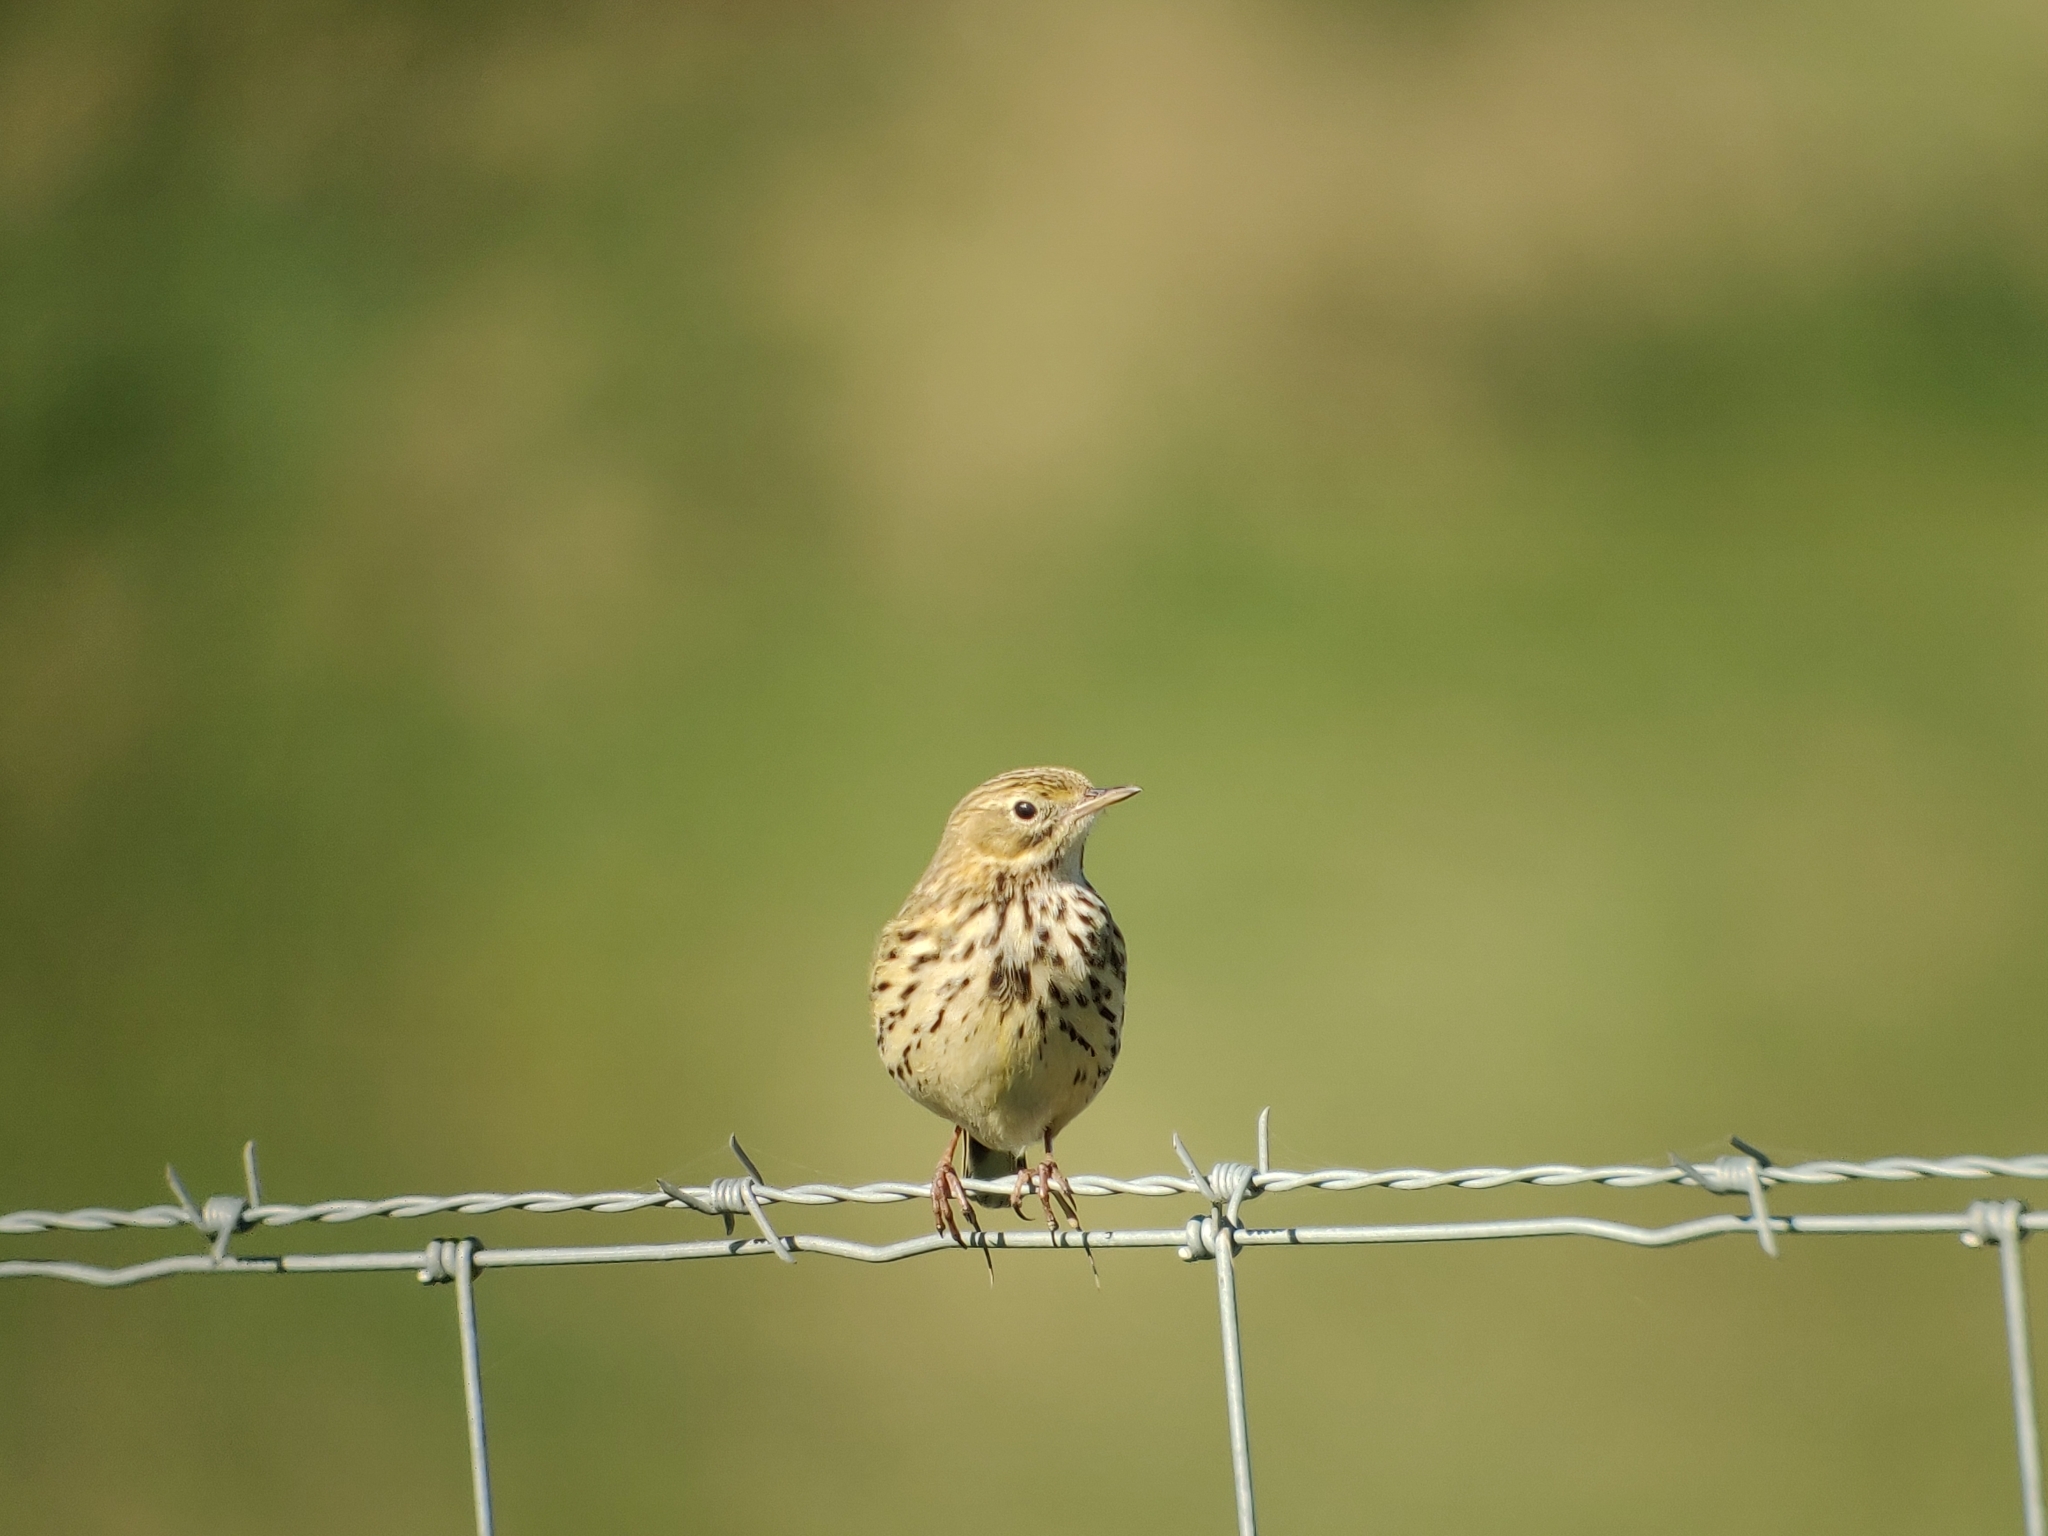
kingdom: Animalia
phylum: Chordata
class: Aves
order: Passeriformes
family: Motacillidae
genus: Anthus
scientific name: Anthus pratensis
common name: Meadow pipit
